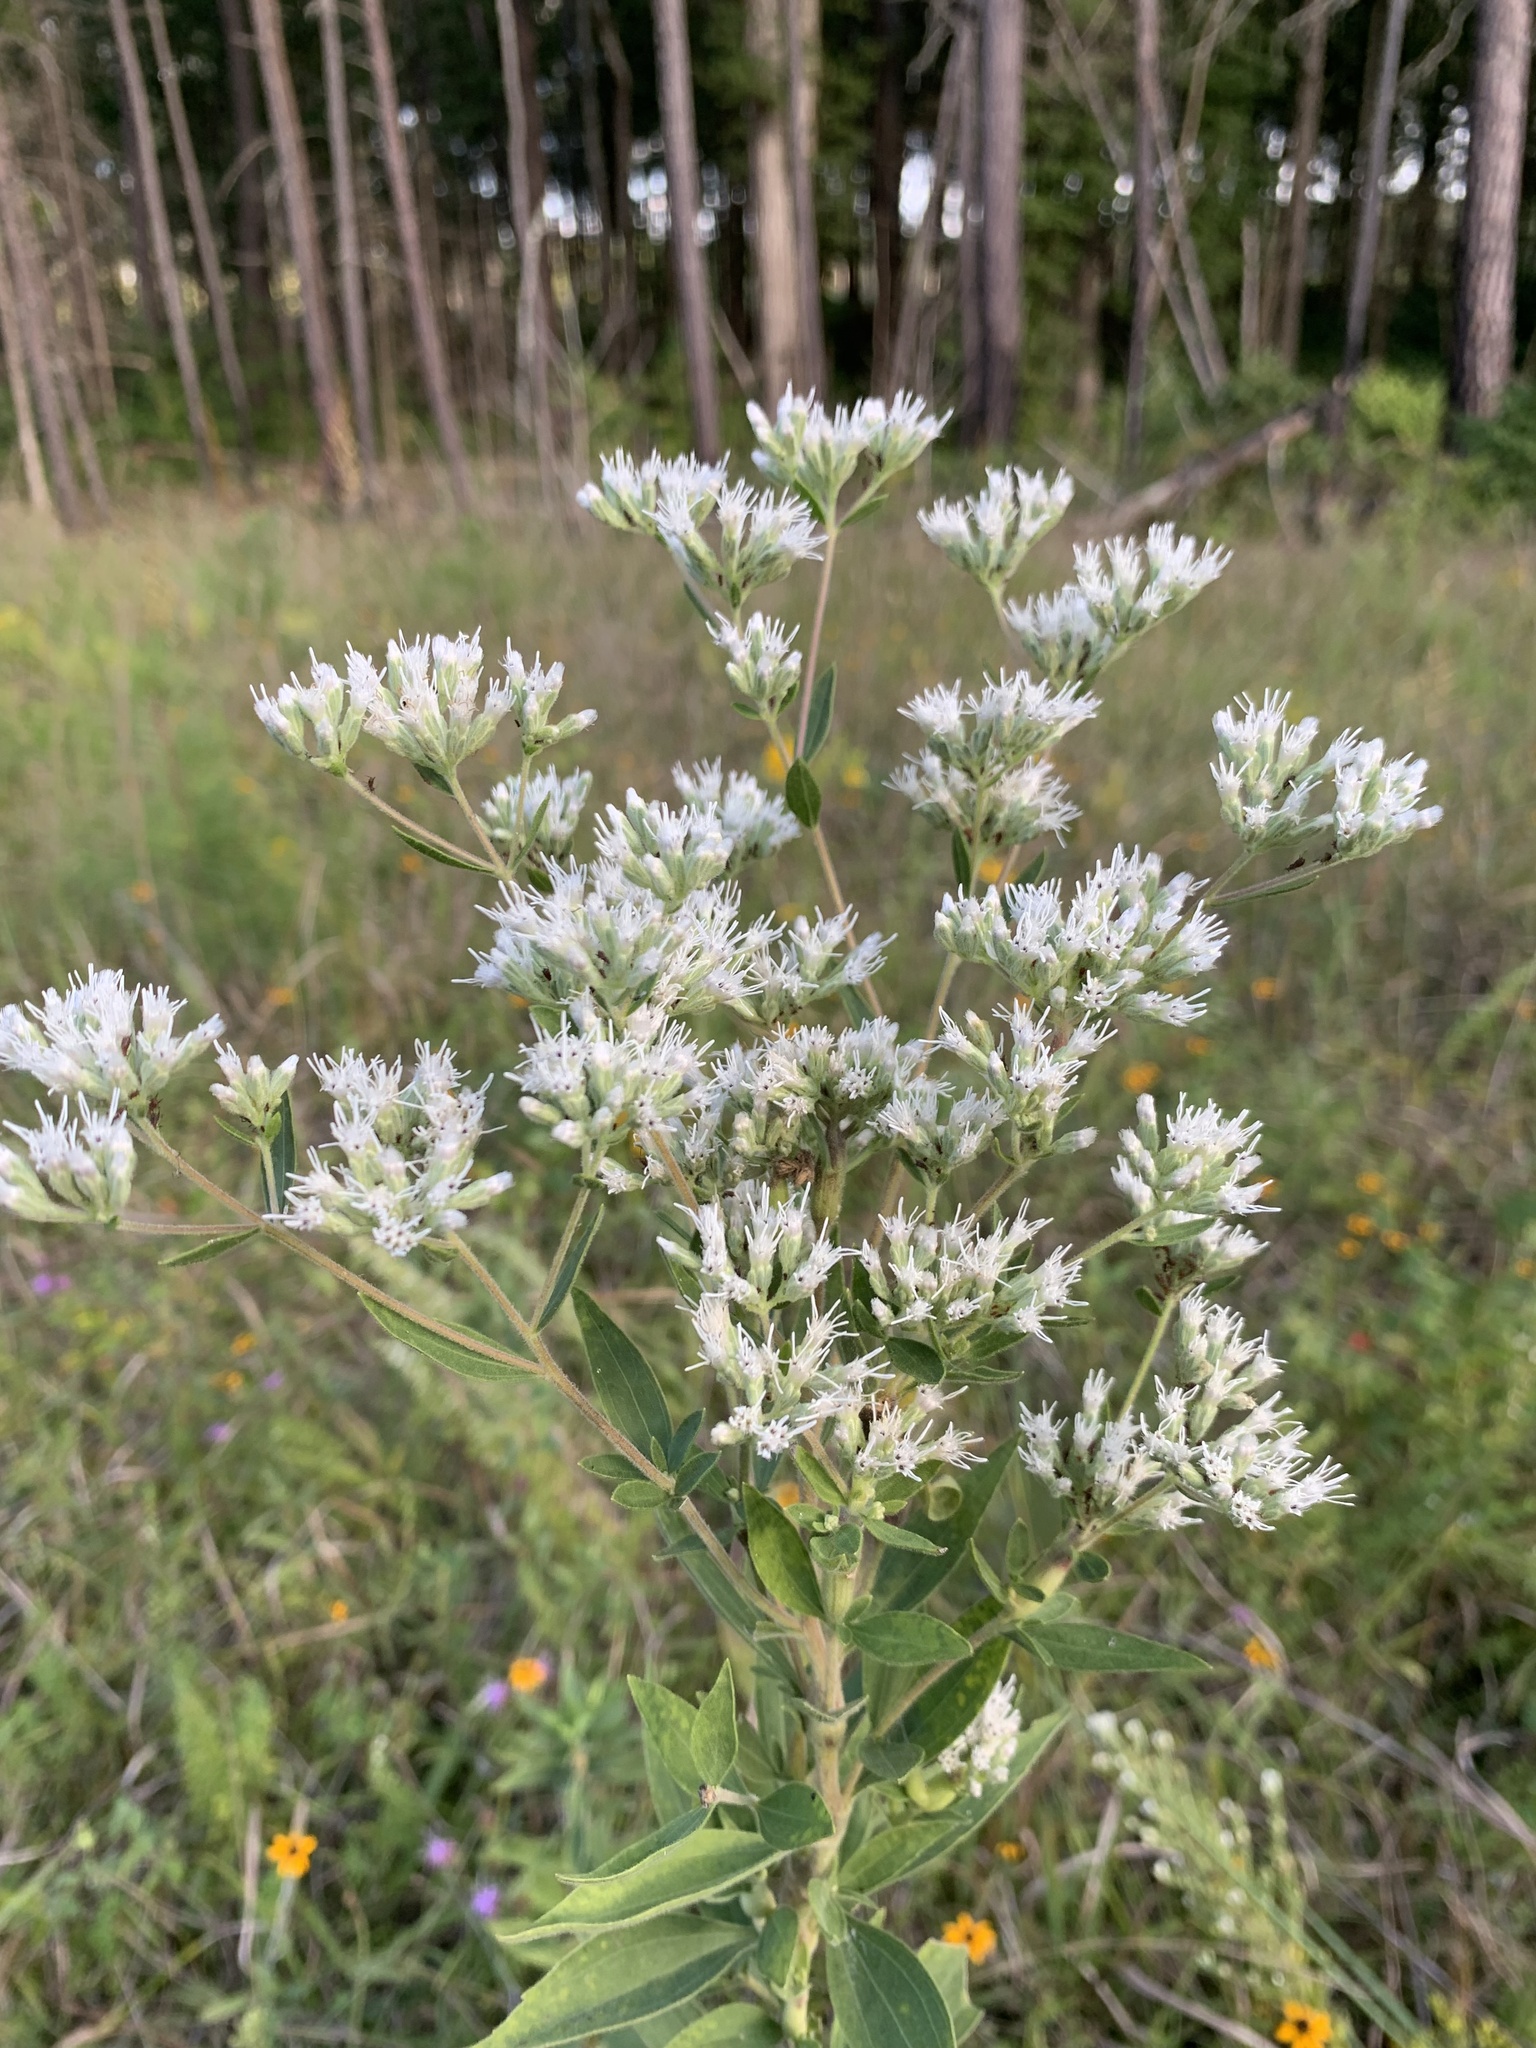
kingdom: Plantae
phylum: Tracheophyta
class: Magnoliopsida
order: Asterales
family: Asteraceae
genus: Eupatorium
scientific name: Eupatorium altissimum
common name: Tall thoroughwort
